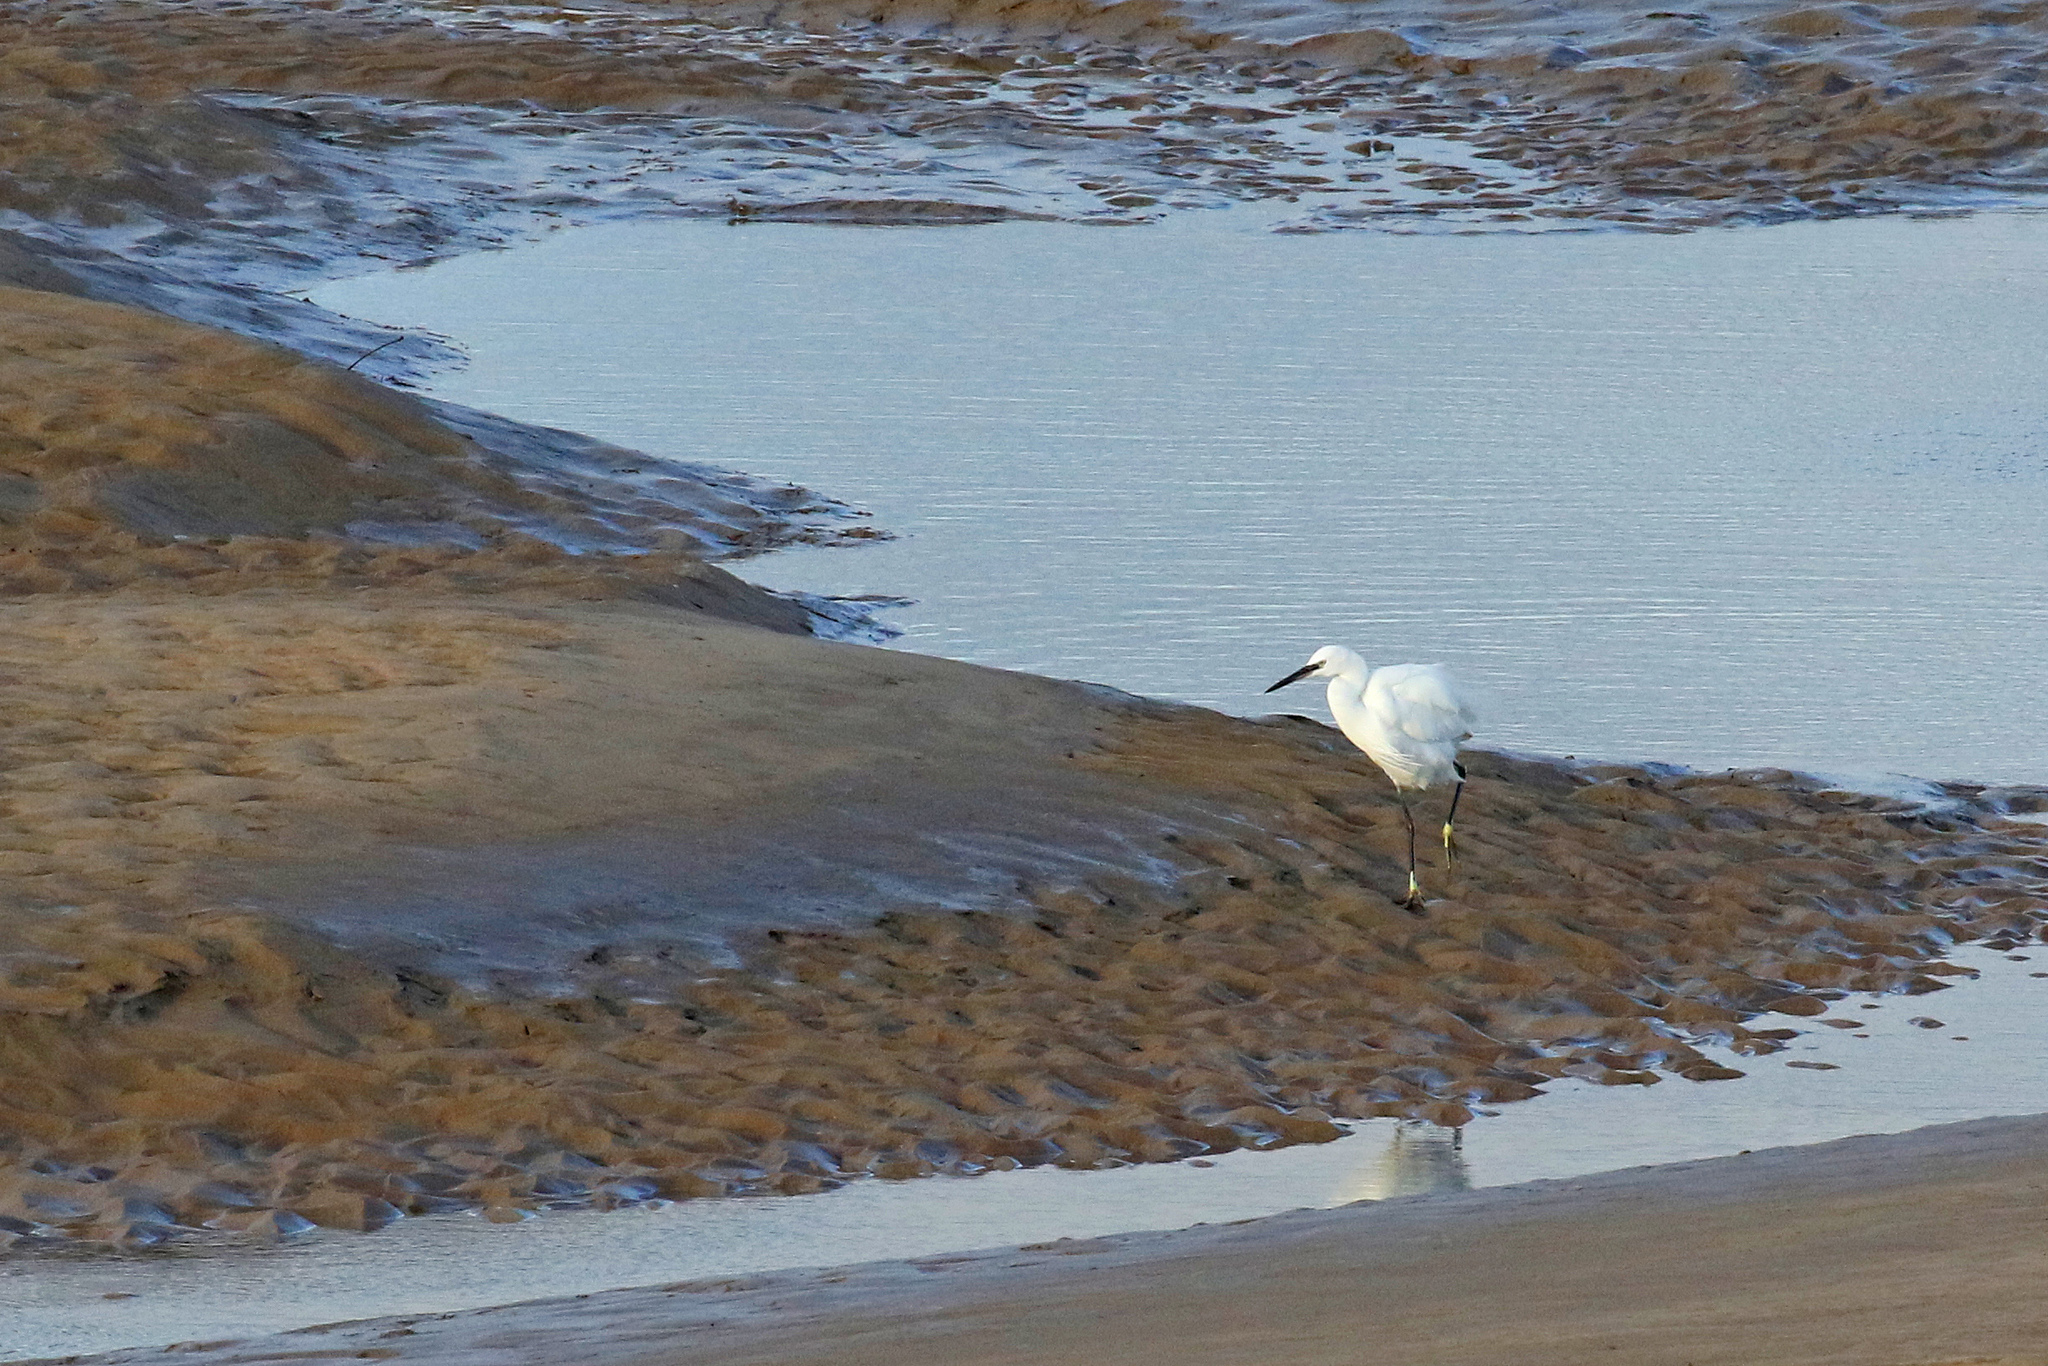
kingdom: Animalia
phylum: Chordata
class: Aves
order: Pelecaniformes
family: Ardeidae
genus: Egretta
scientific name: Egretta garzetta
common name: Little egret
